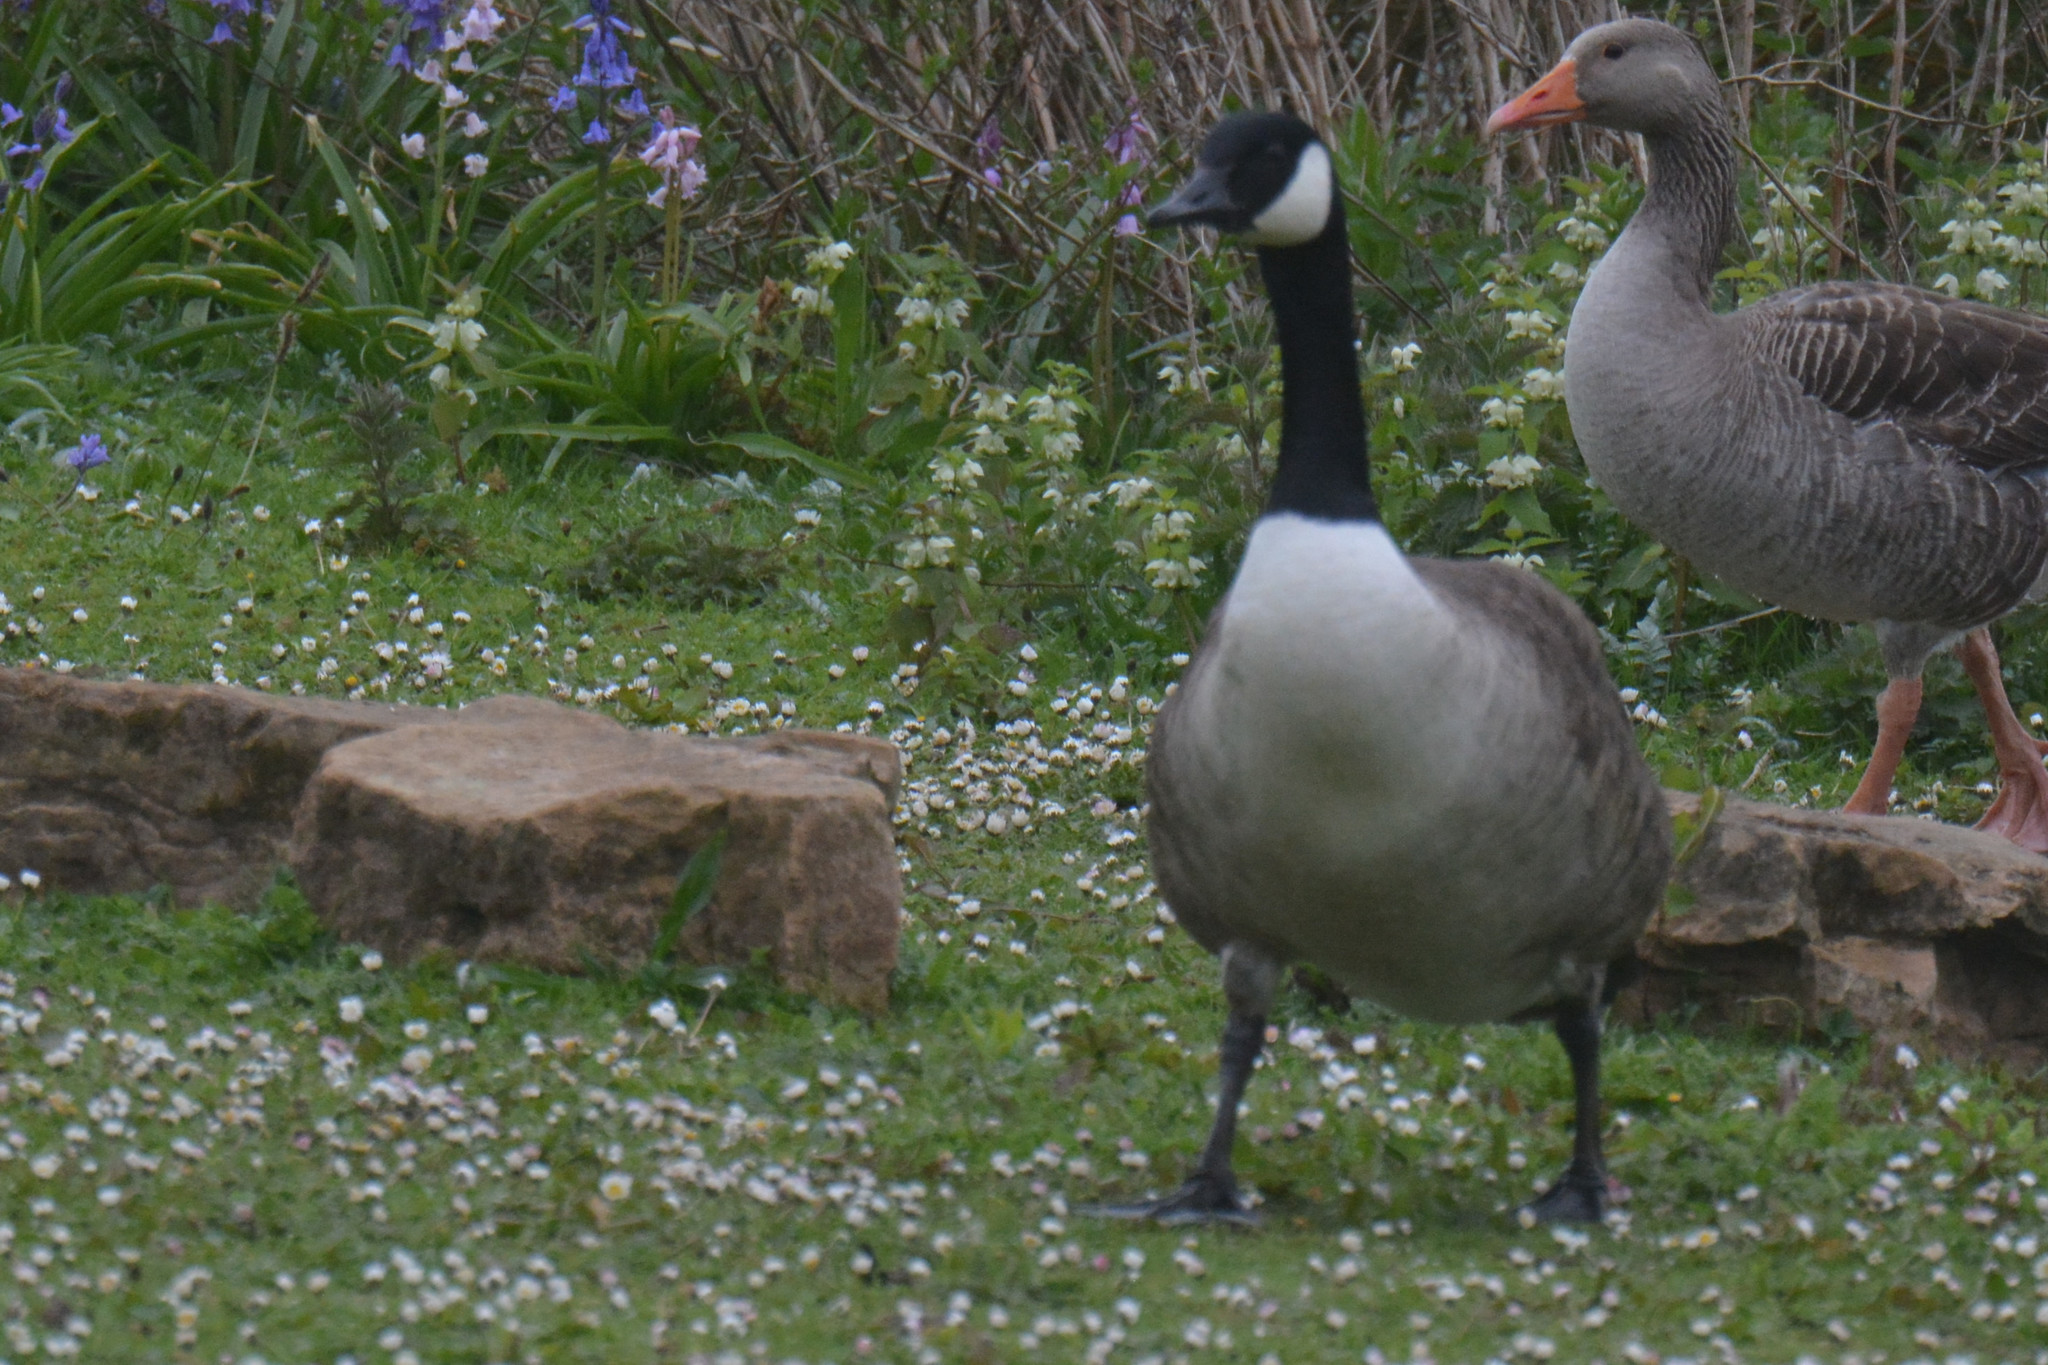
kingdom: Animalia
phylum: Chordata
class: Aves
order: Anseriformes
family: Anatidae
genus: Branta
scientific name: Branta canadensis
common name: Canada goose
